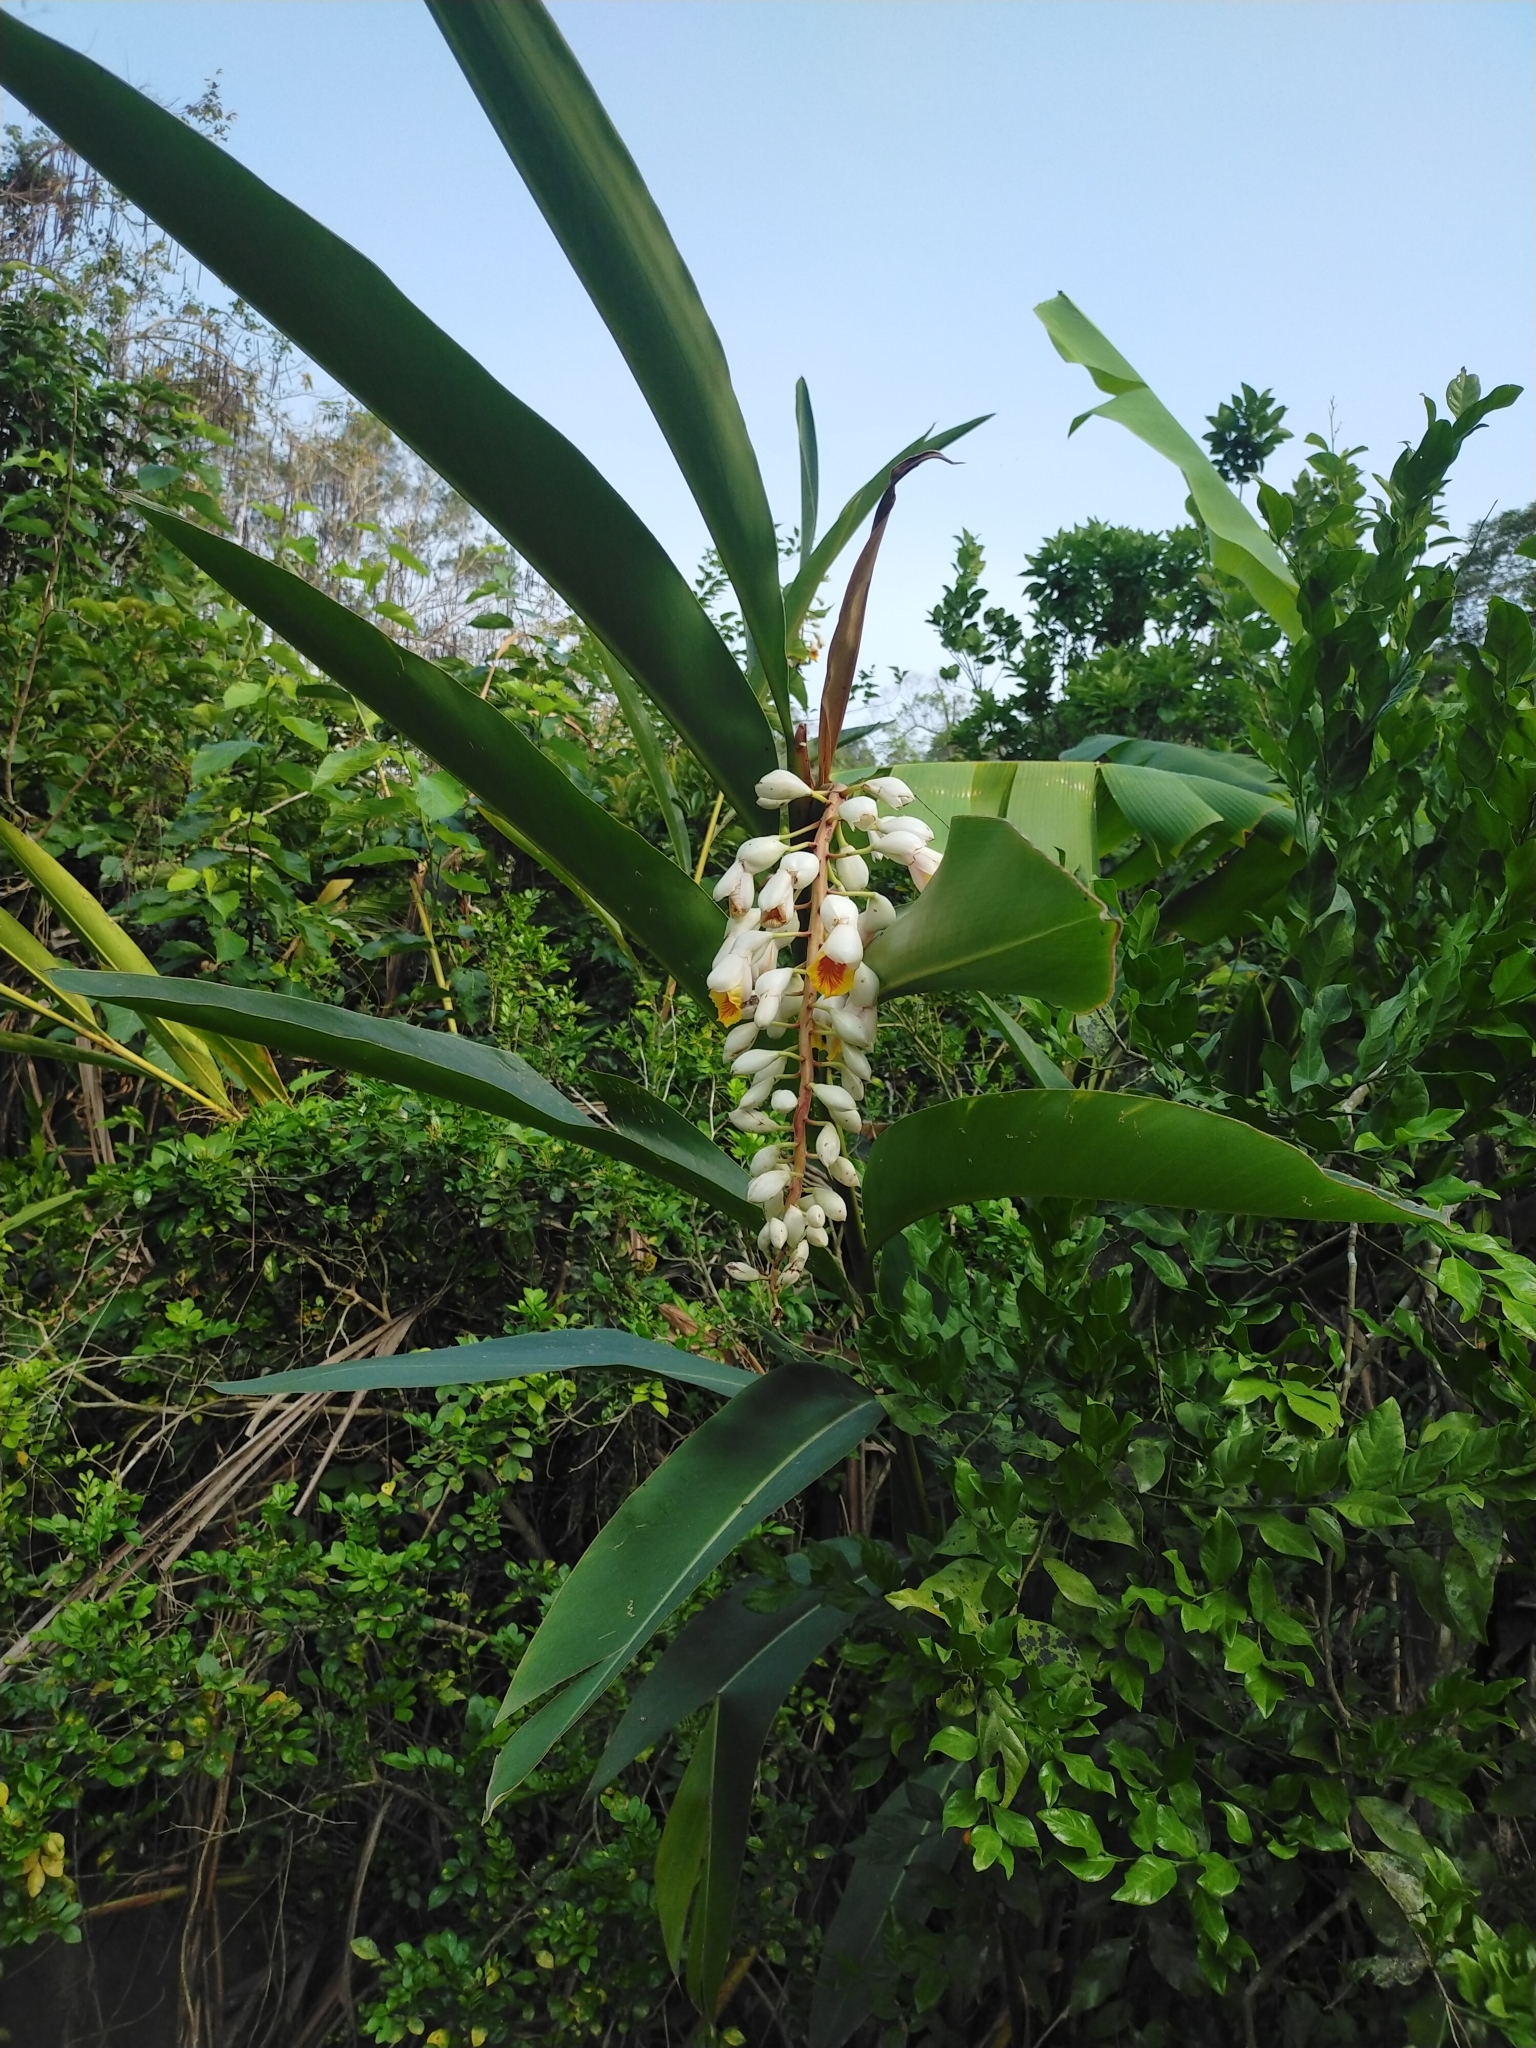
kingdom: Plantae
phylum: Tracheophyta
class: Liliopsida
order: Zingiberales
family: Zingiberaceae
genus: Alpinia
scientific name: Alpinia zerumbet
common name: Shellplant
